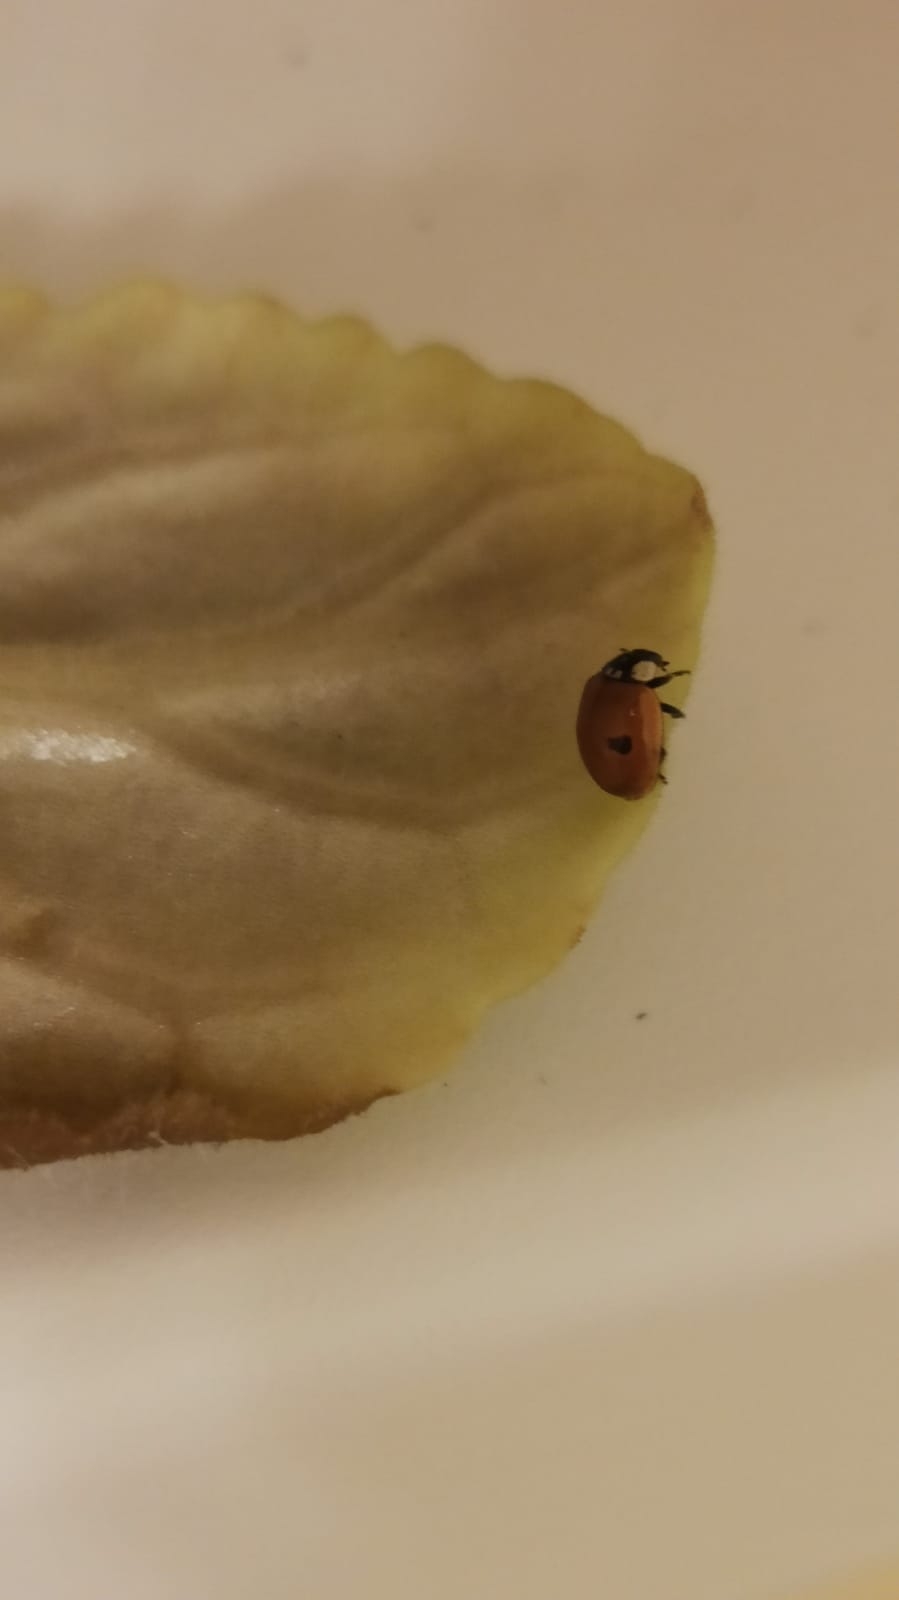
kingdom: Animalia
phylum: Arthropoda
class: Insecta
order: Coleoptera
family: Coccinellidae
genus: Adalia
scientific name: Adalia bipunctata
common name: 2-spot ladybird
